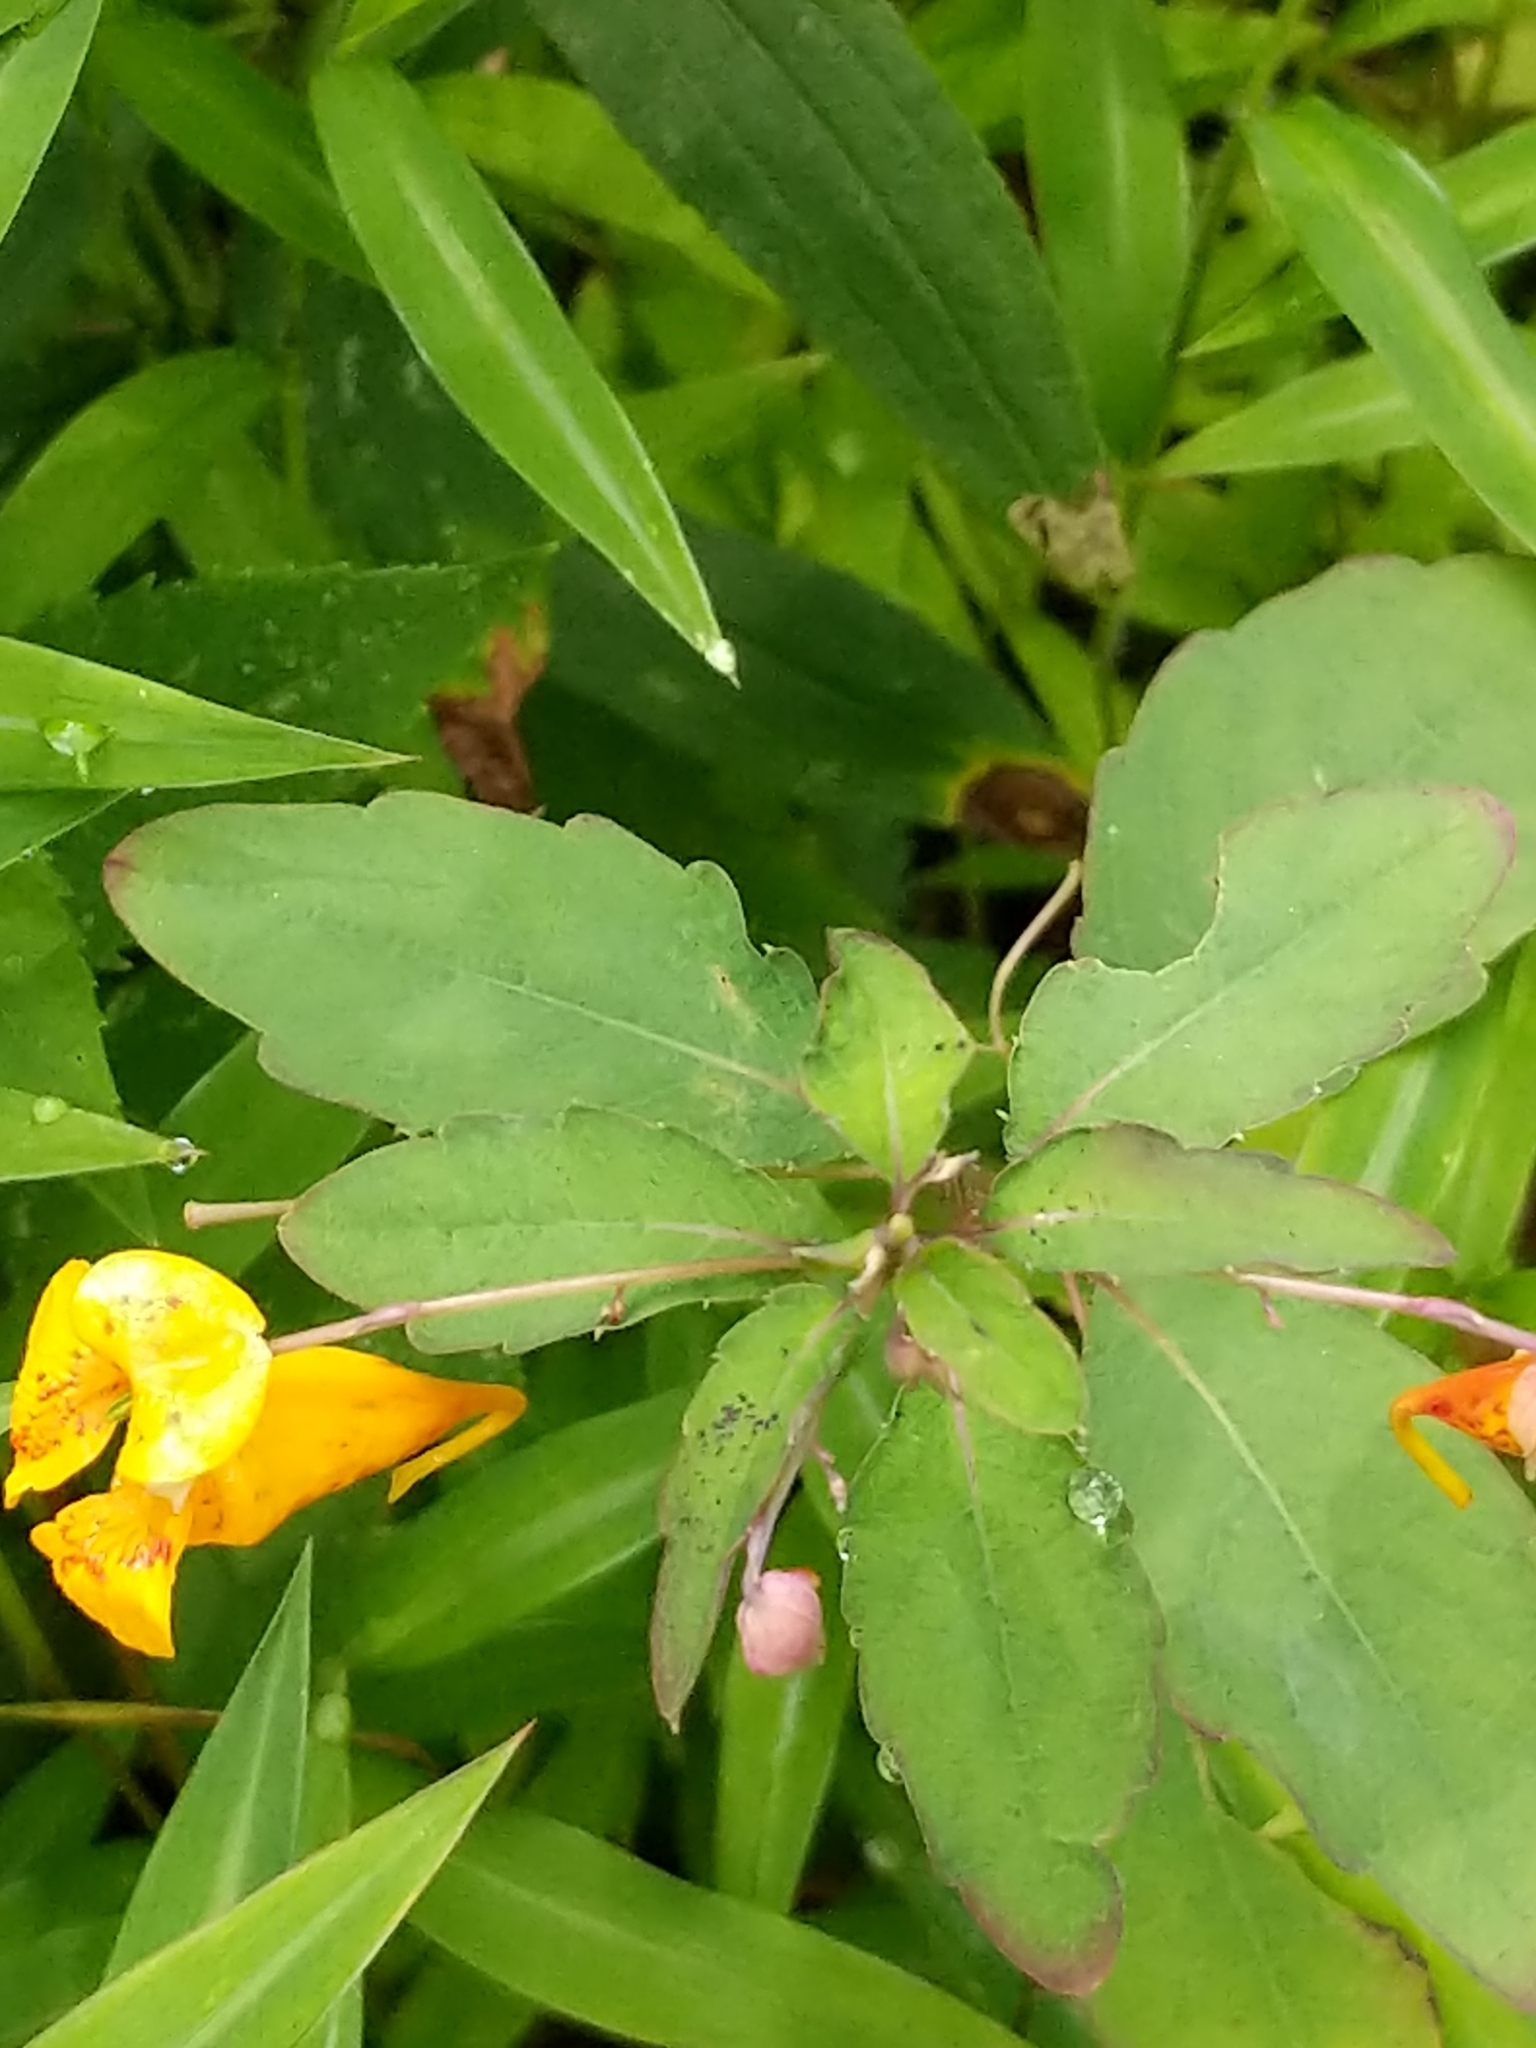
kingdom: Plantae
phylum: Tracheophyta
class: Magnoliopsida
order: Ericales
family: Balsaminaceae
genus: Impatiens
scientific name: Impatiens capensis
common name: Orange balsam
